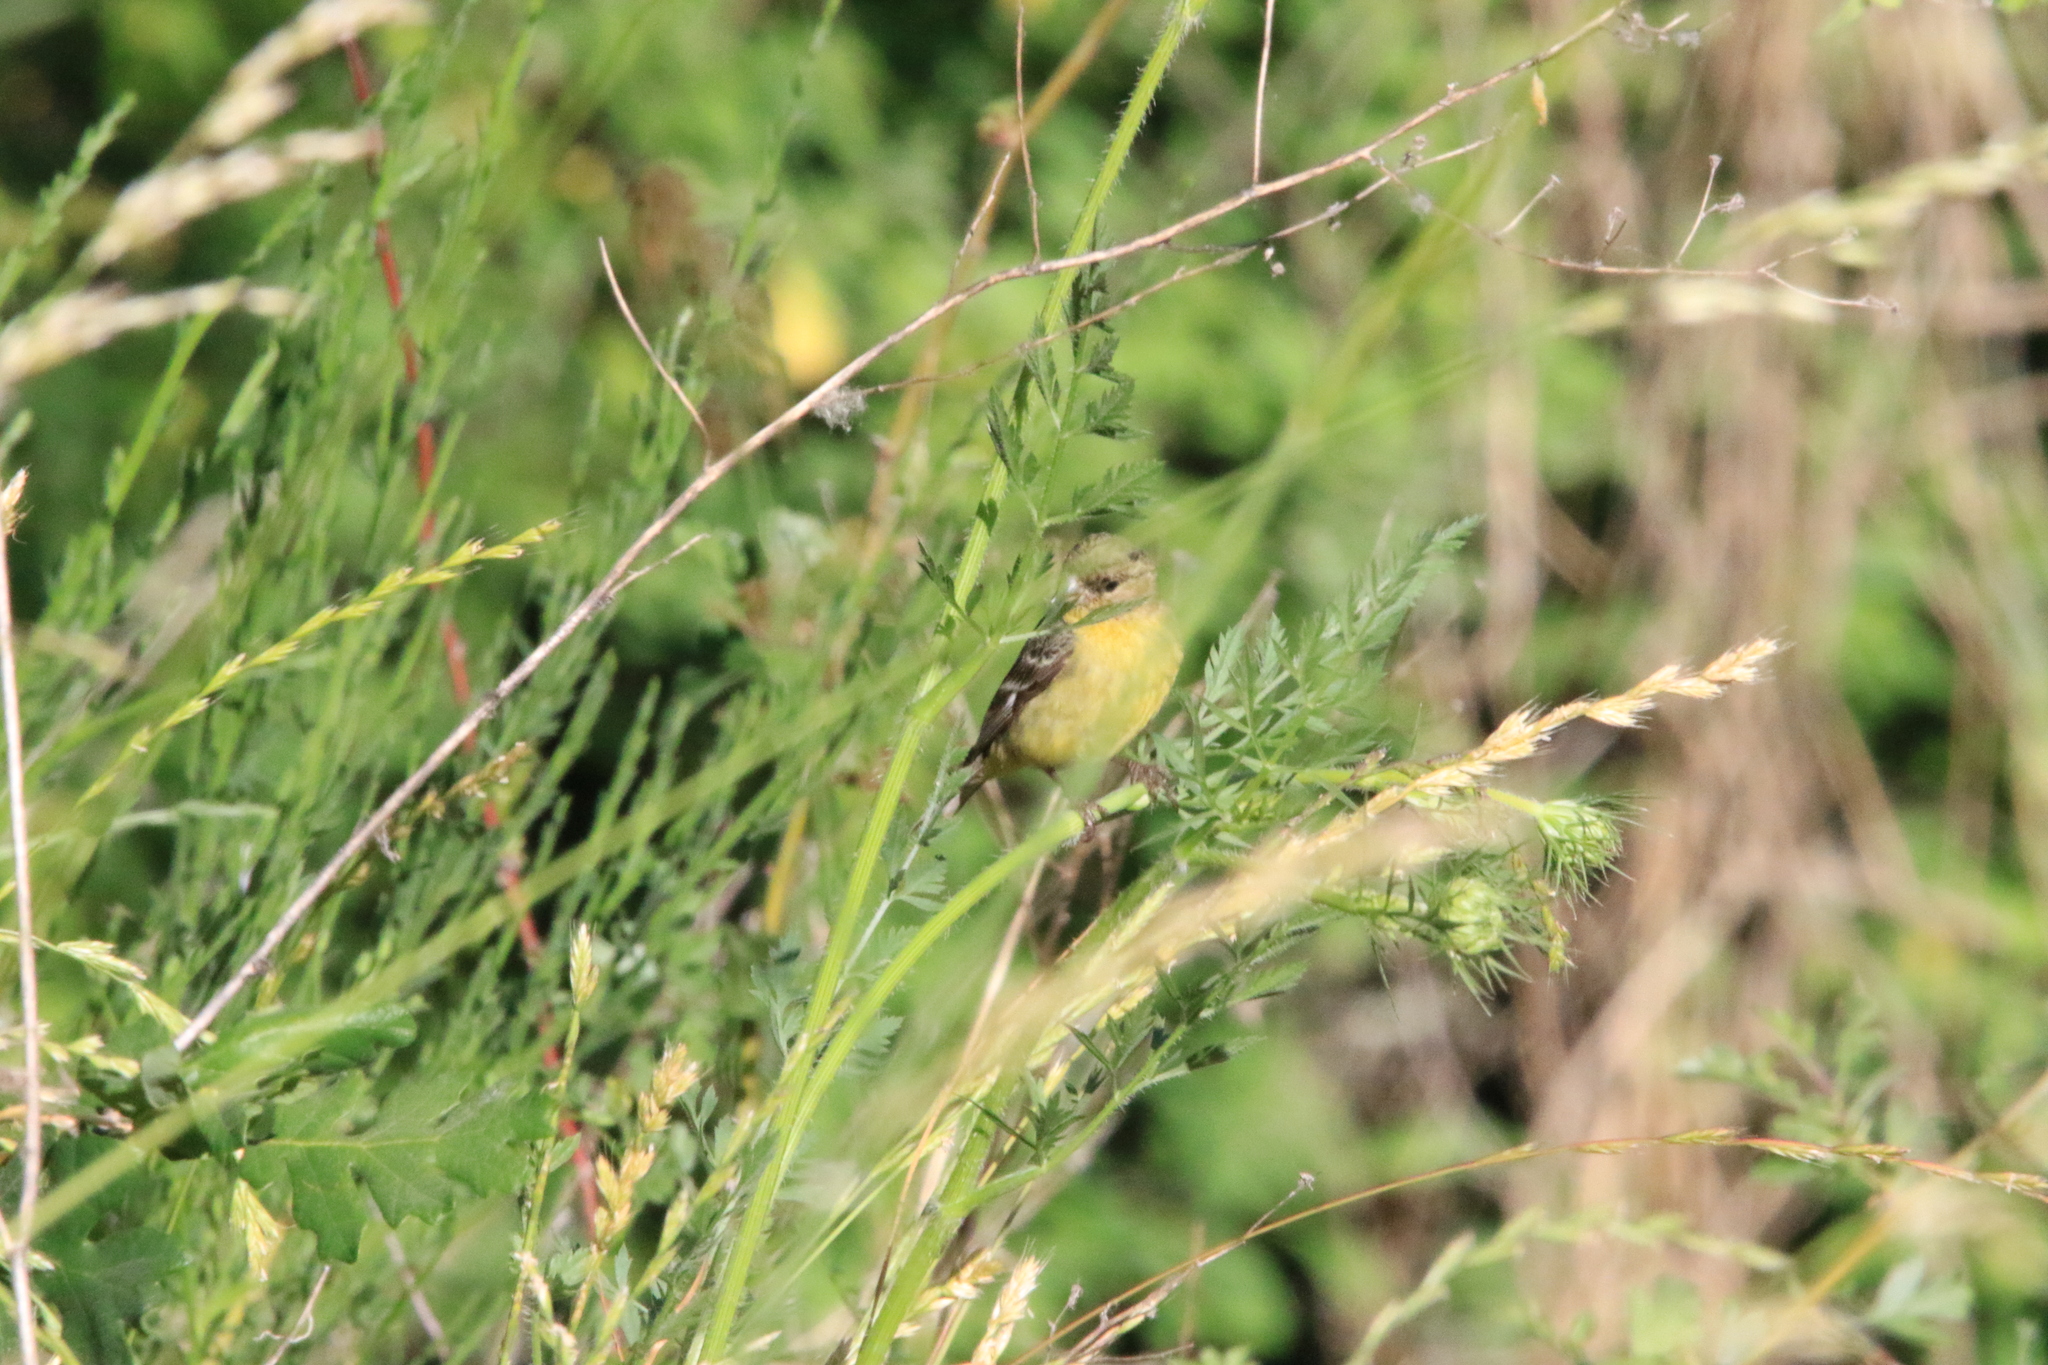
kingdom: Animalia
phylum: Chordata
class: Aves
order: Passeriformes
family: Fringillidae
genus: Spinus
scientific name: Spinus psaltria
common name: Lesser goldfinch
